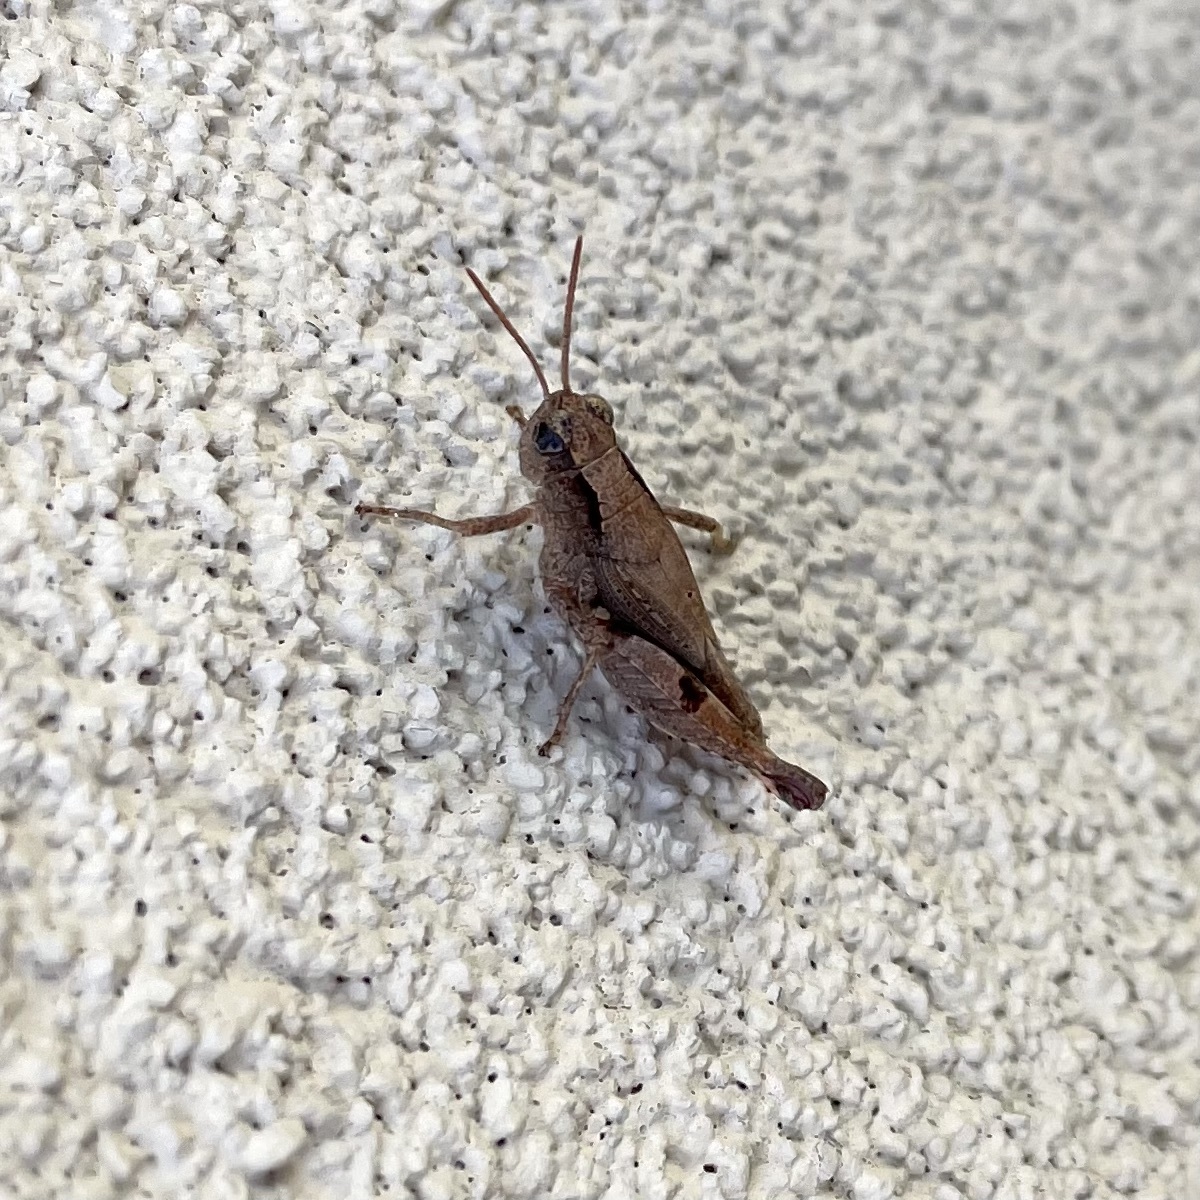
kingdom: Animalia
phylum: Arthropoda
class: Insecta
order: Orthoptera
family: Acrididae
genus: Phaulacridium
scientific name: Phaulacridium vittatum
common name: Wingless grasshopper
